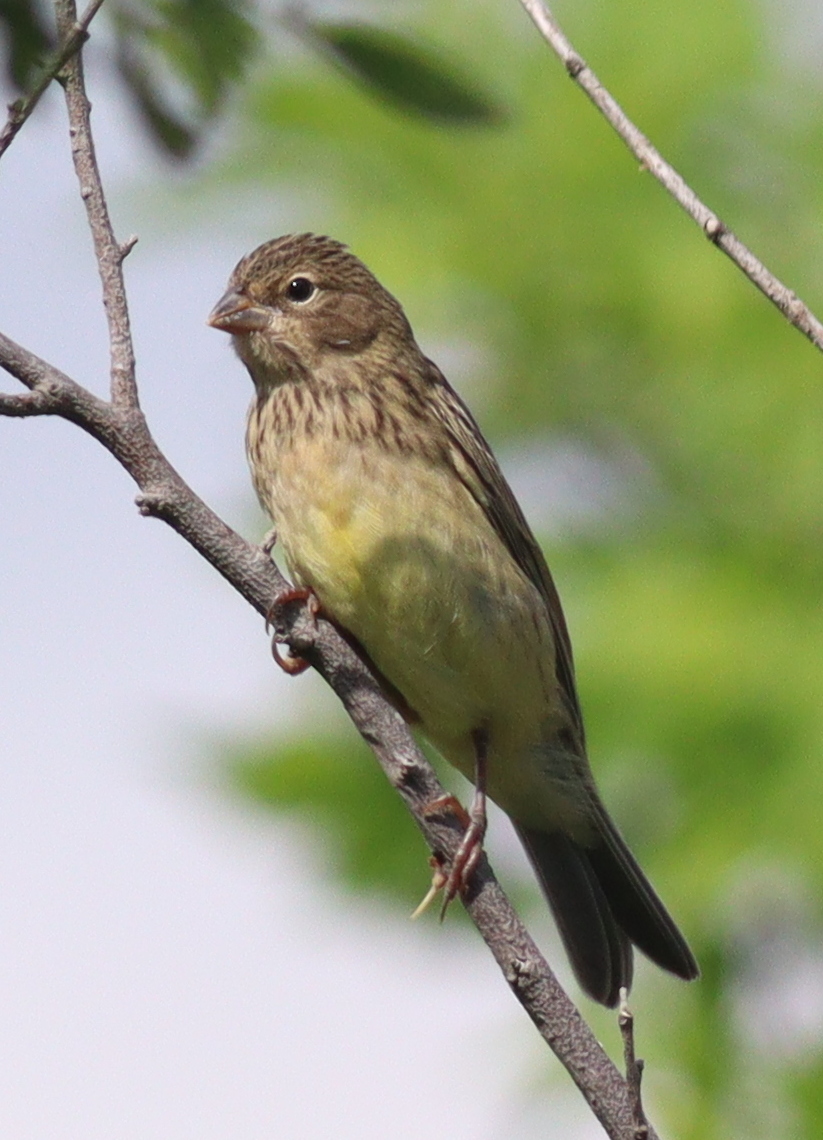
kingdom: Animalia
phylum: Chordata
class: Aves
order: Passeriformes
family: Thraupidae
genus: Sicalis
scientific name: Sicalis luteola
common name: Grassland yellow-finch
